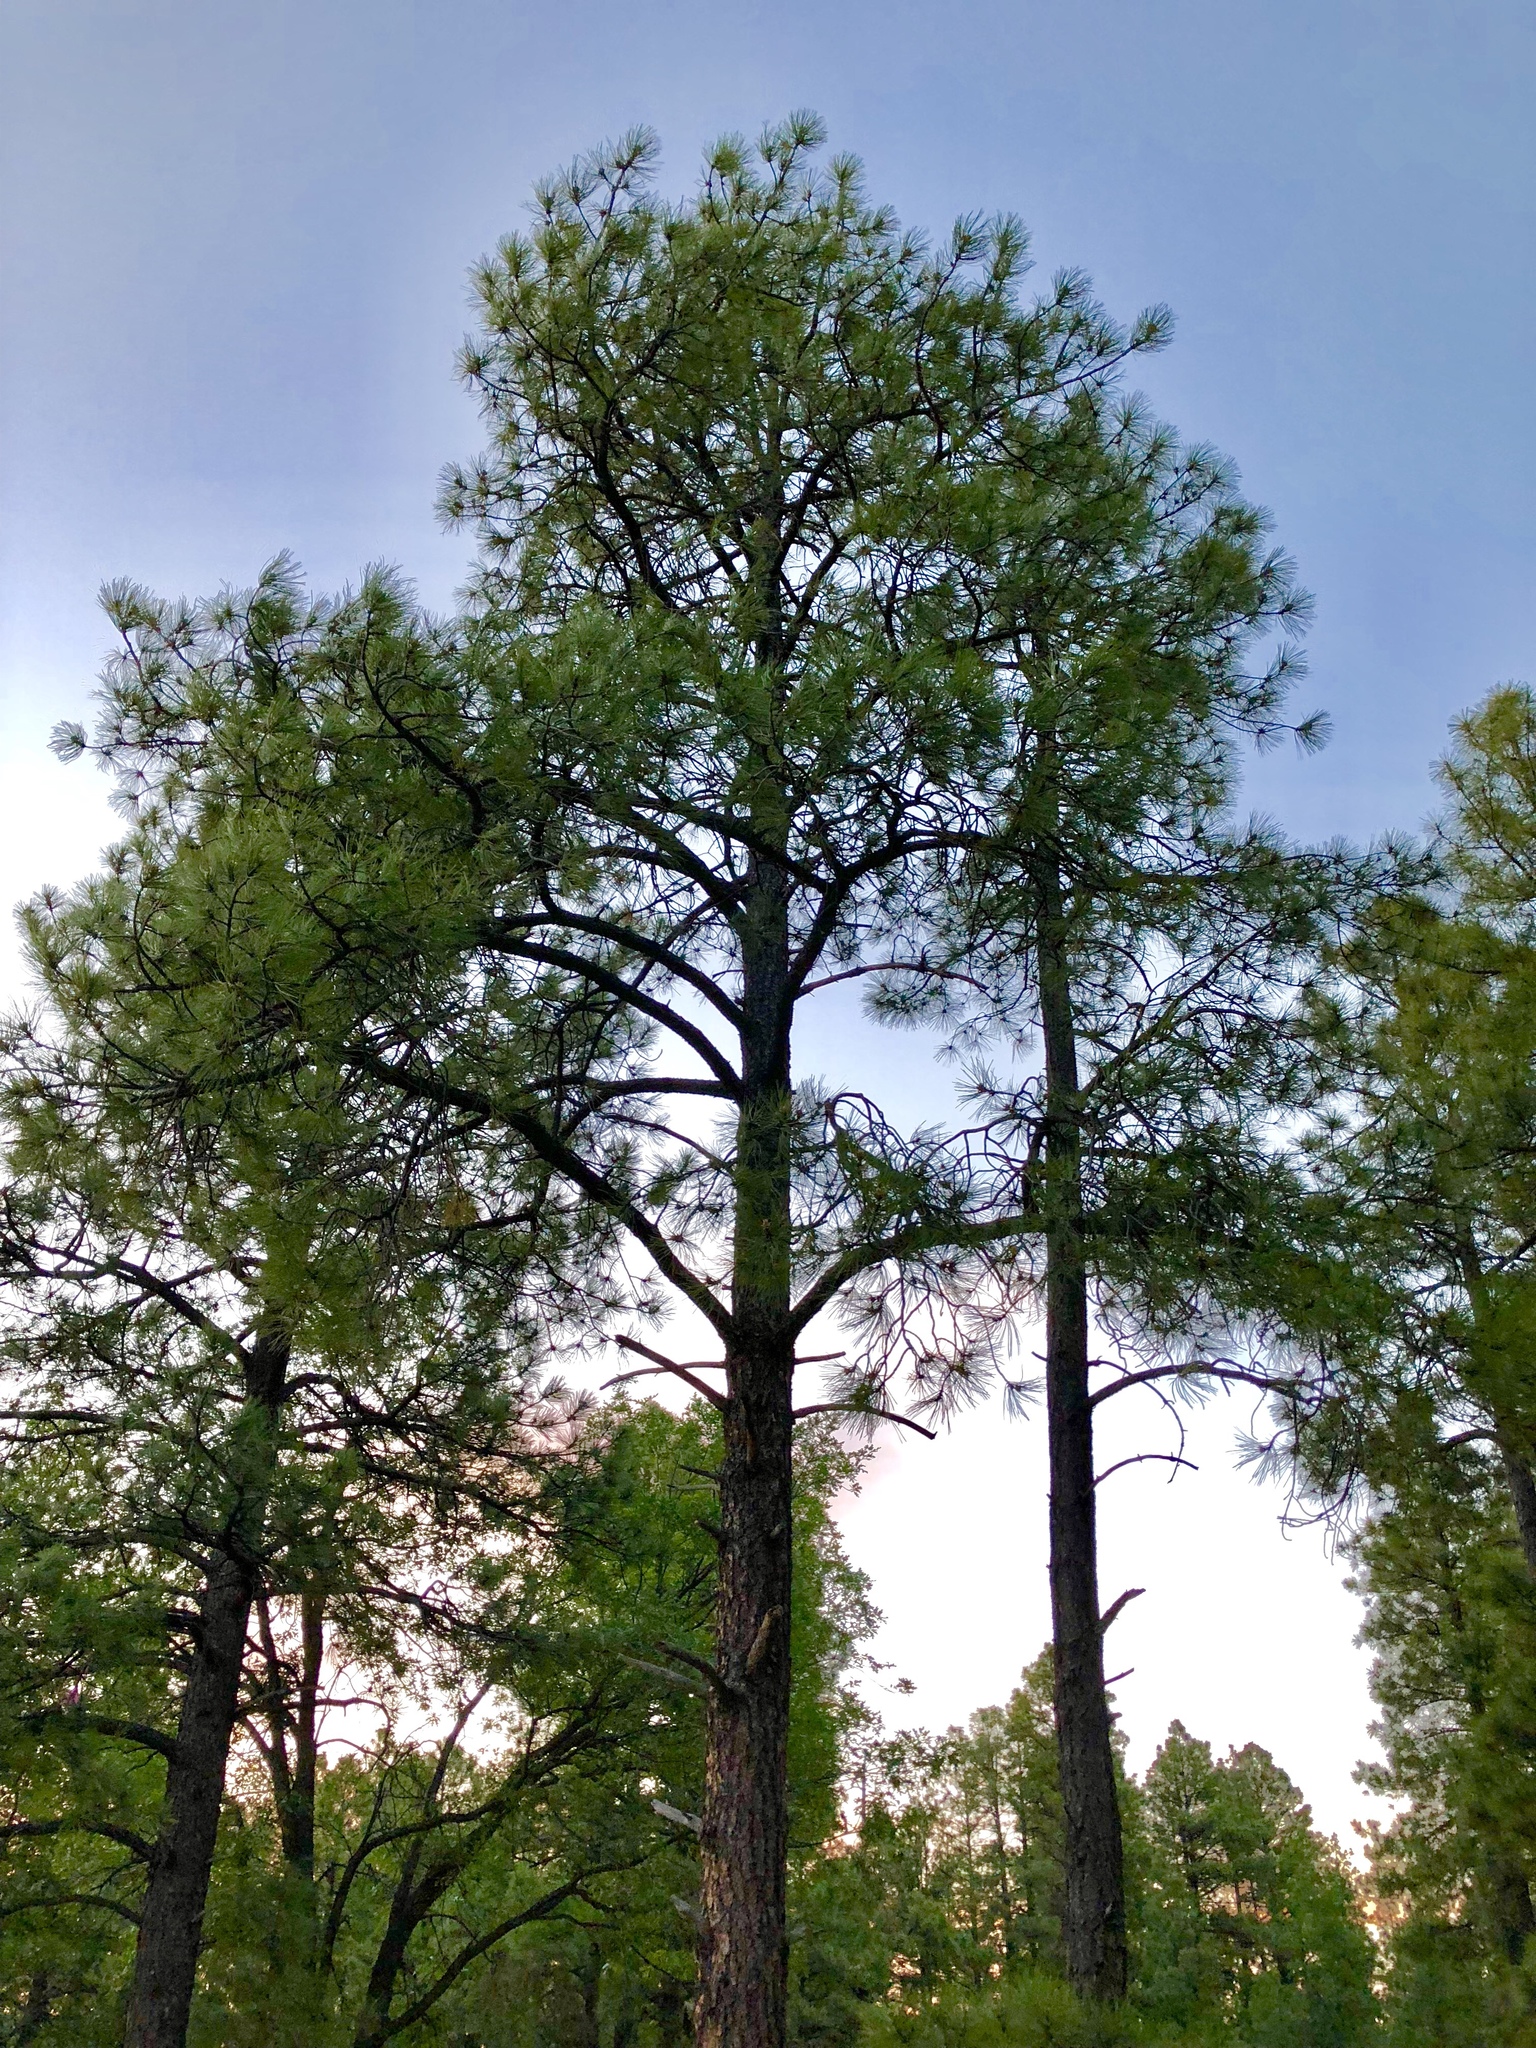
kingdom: Plantae
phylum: Tracheophyta
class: Pinopsida
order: Pinales
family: Pinaceae
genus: Pinus
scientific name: Pinus ponderosa
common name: Western yellow-pine
